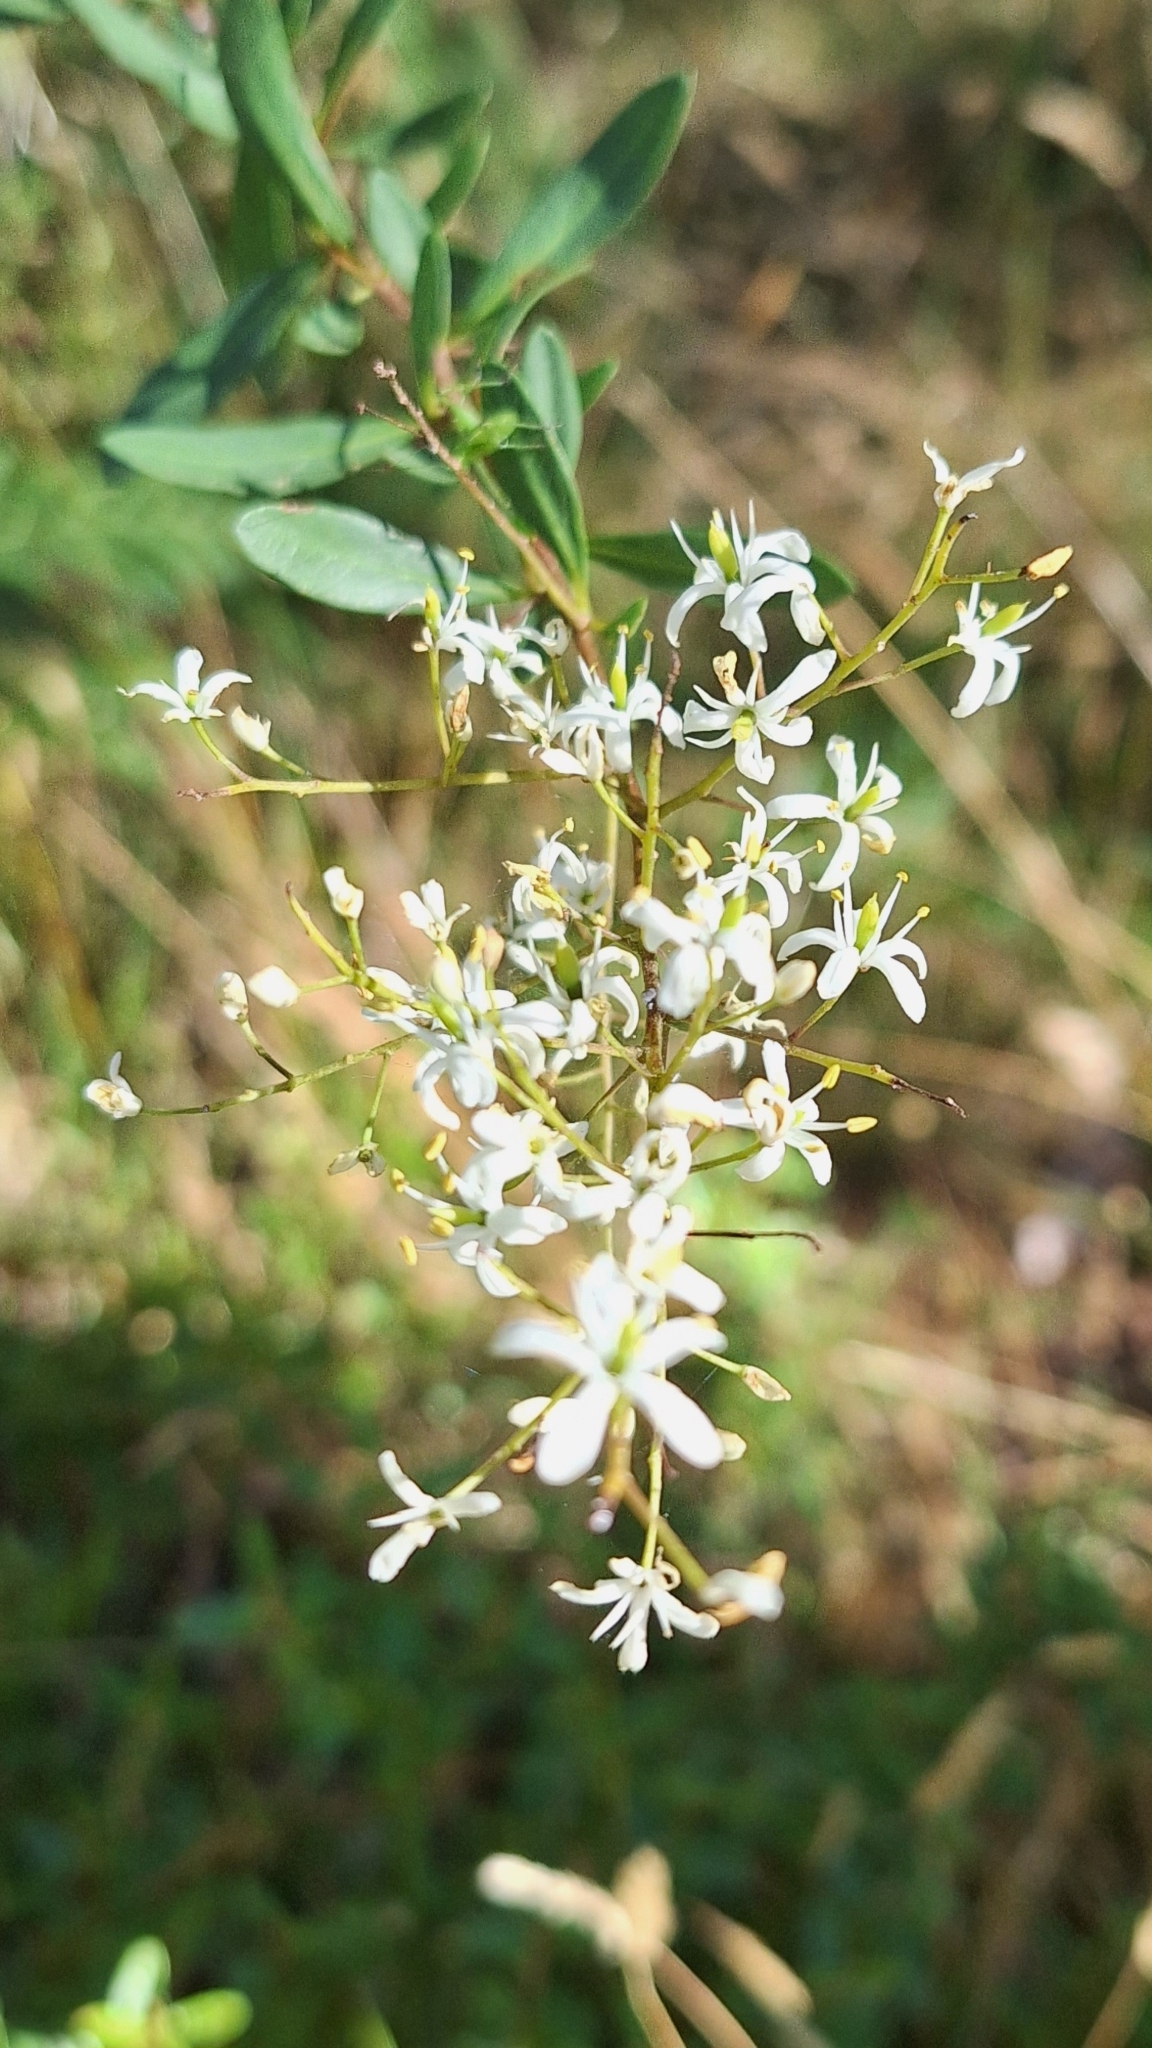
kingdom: Plantae
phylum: Tracheophyta
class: Magnoliopsida
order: Apiales
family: Pittosporaceae
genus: Bursaria
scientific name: Bursaria spinosa
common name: Australian blackthorn
